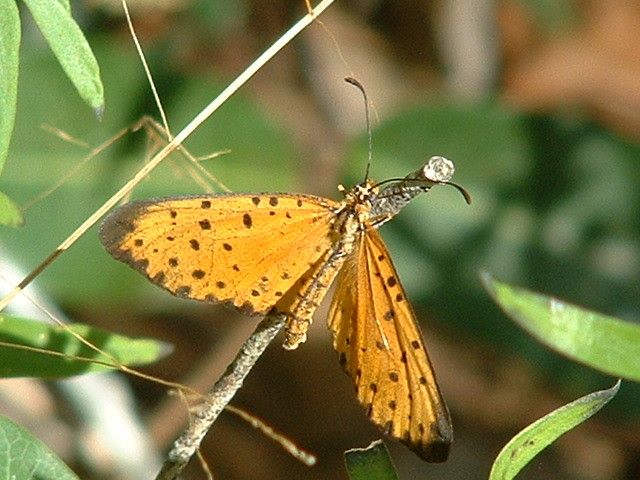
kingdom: Animalia
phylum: Arthropoda
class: Insecta
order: Lepidoptera
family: Nymphalidae
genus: Pardopsis
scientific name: Pardopsis punctatissima
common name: Polka dot
